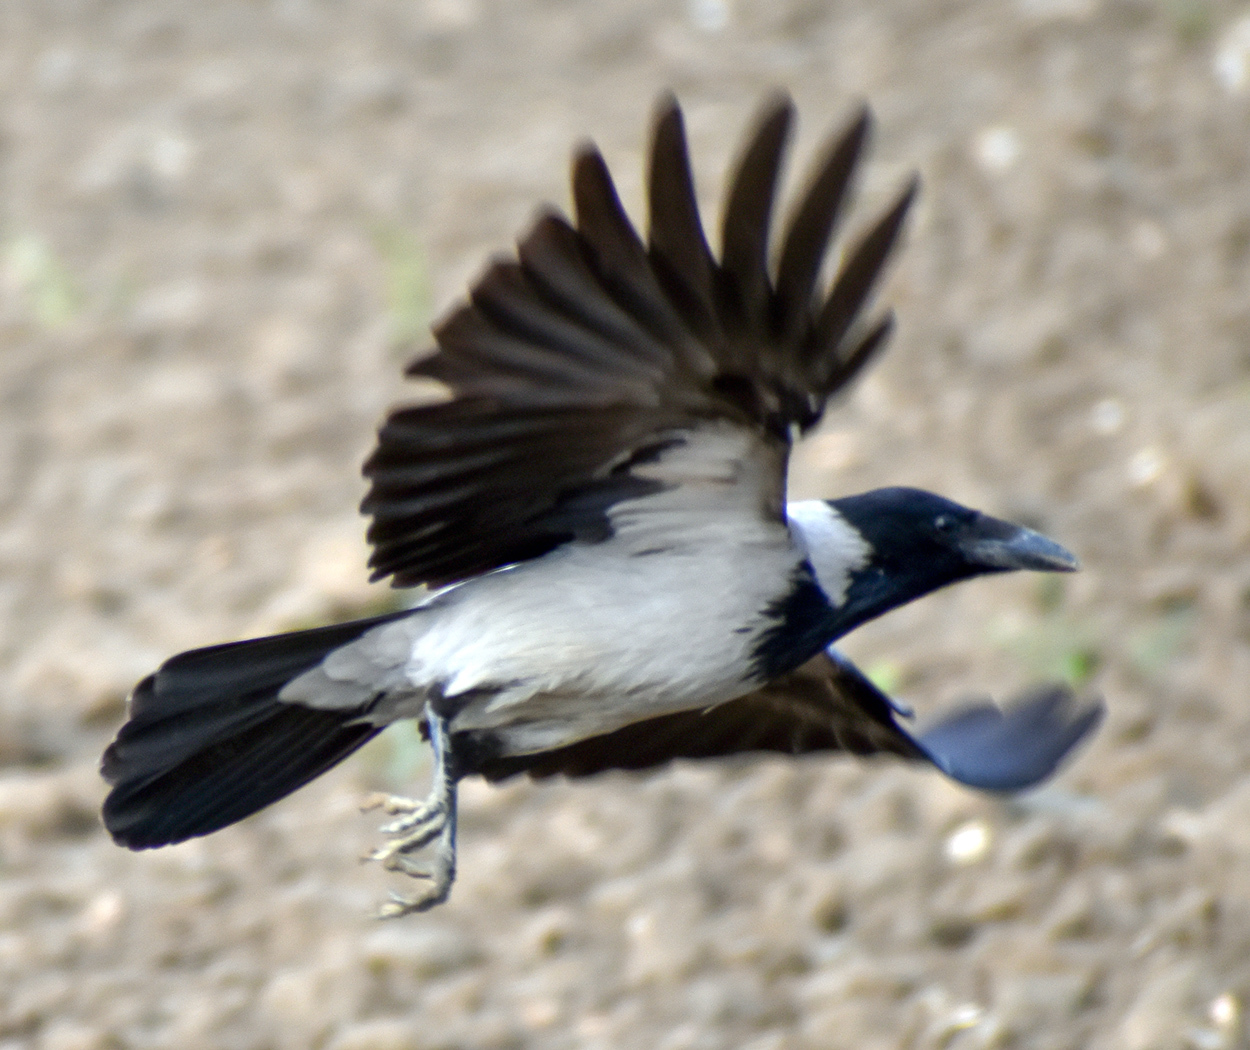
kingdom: Animalia
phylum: Chordata
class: Aves
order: Passeriformes
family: Corvidae
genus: Corvus
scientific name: Corvus cornix
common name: Hooded crow
